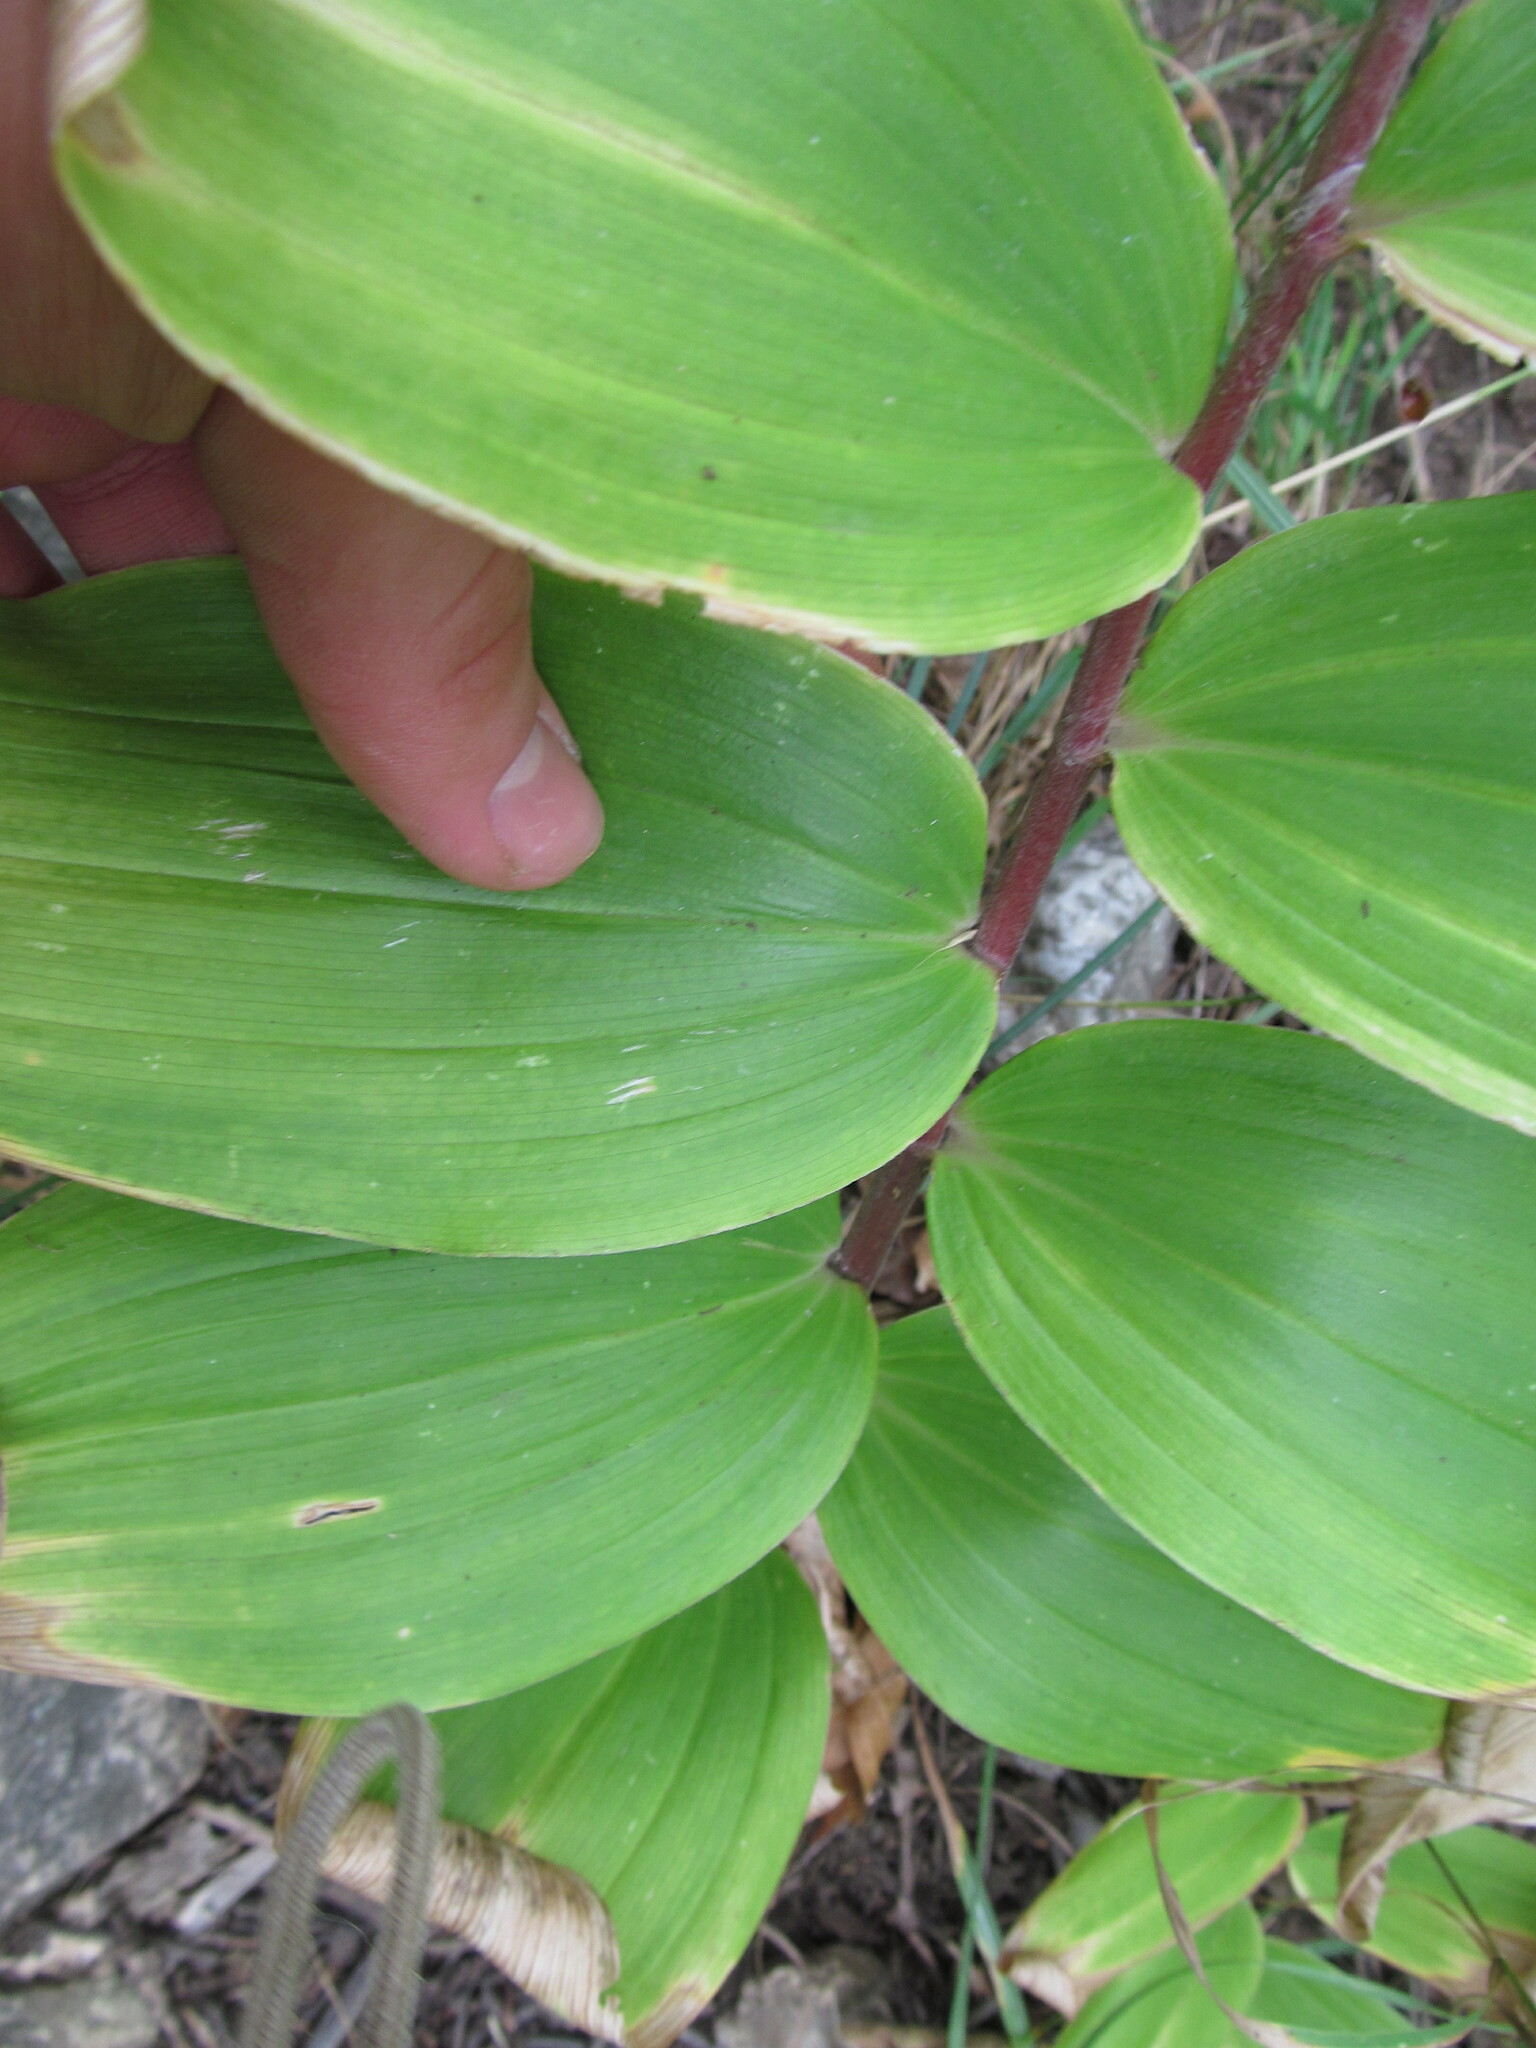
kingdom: Plantae
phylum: Tracheophyta
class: Liliopsida
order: Asparagales
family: Asparagaceae
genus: Maianthemum
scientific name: Maianthemum racemosum
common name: False spikenard
